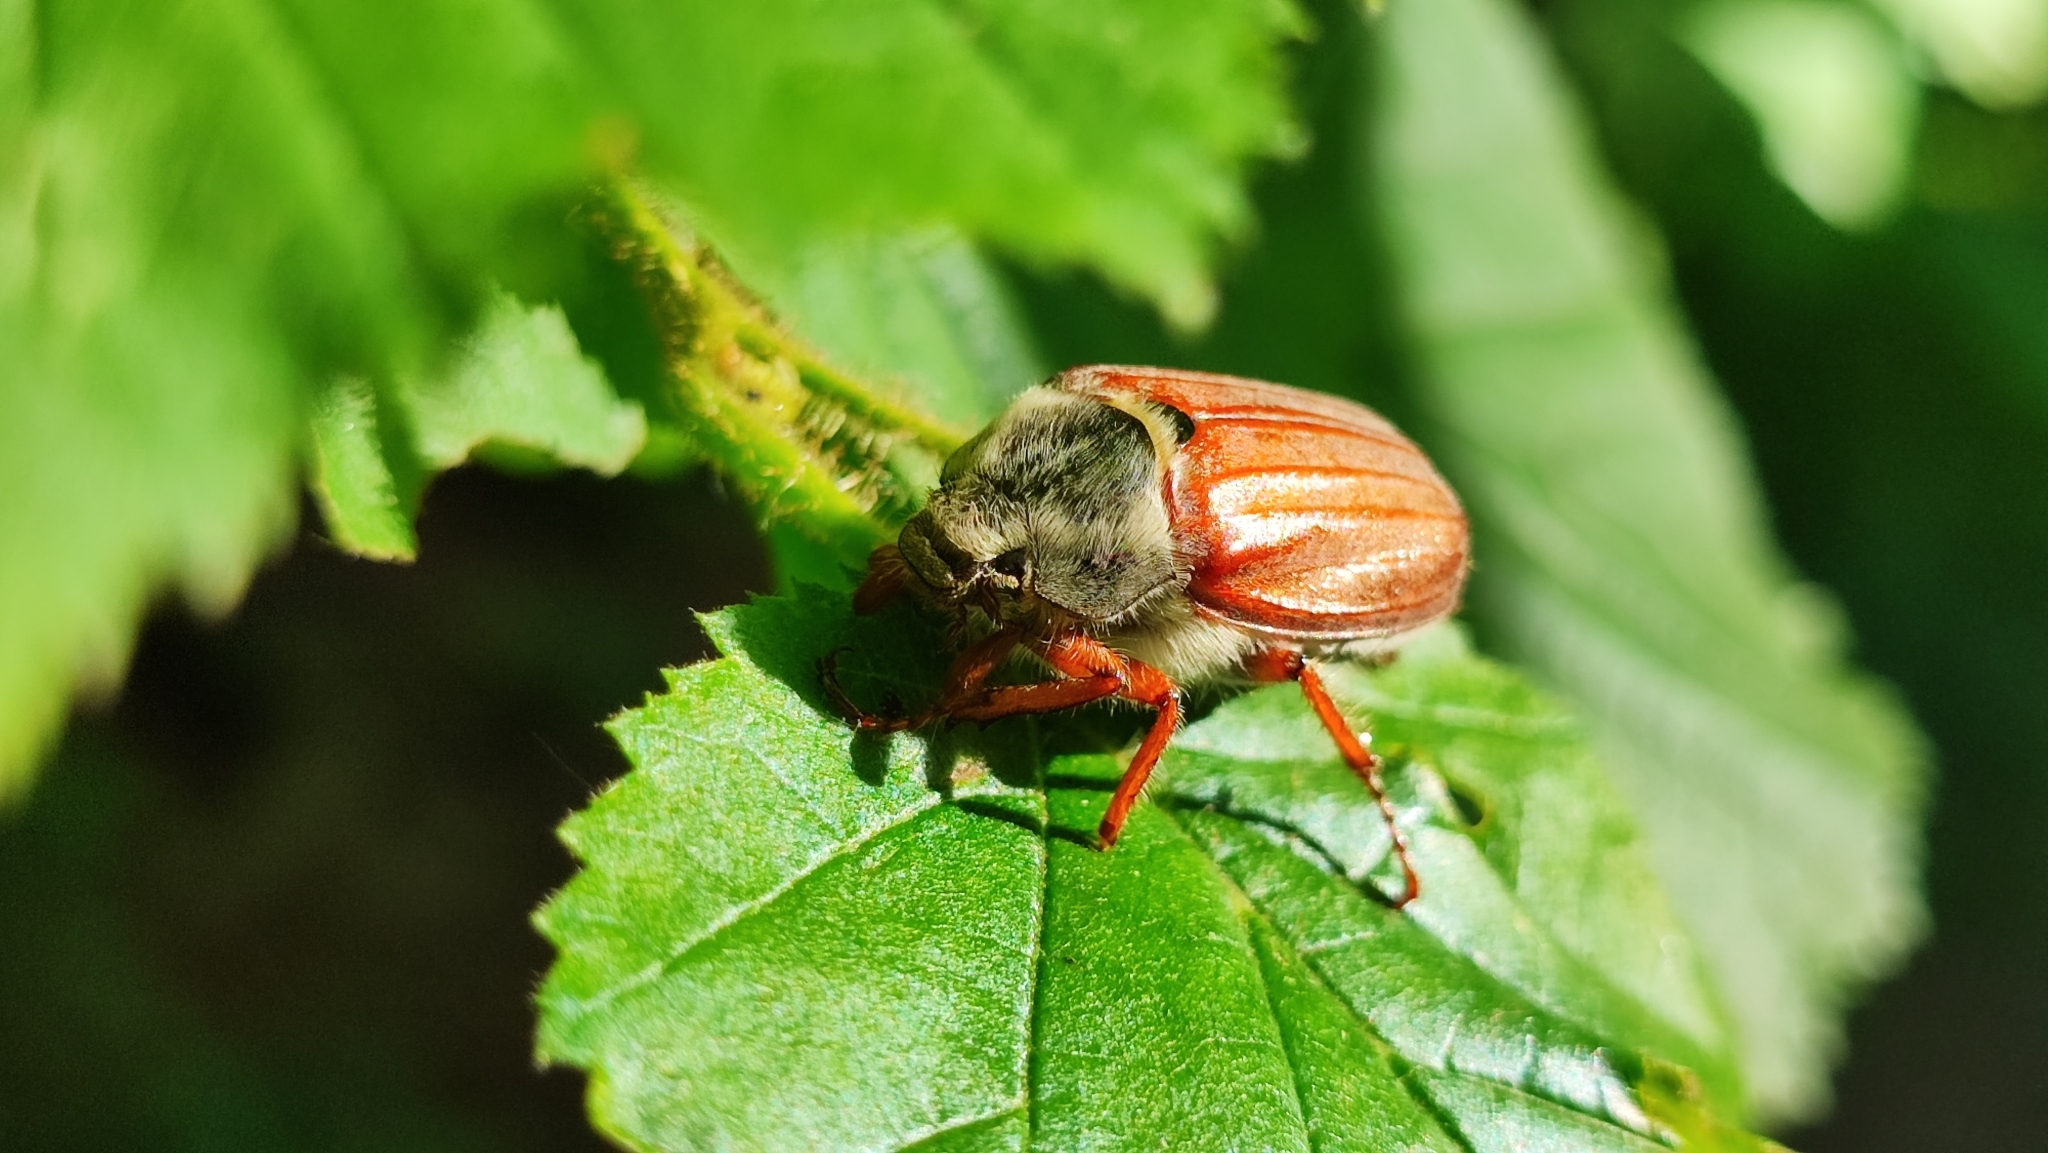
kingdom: Animalia
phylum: Arthropoda
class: Insecta
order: Coleoptera
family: Scarabaeidae
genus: Melolontha
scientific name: Melolontha melolontha
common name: Cockchafer maybeetle
